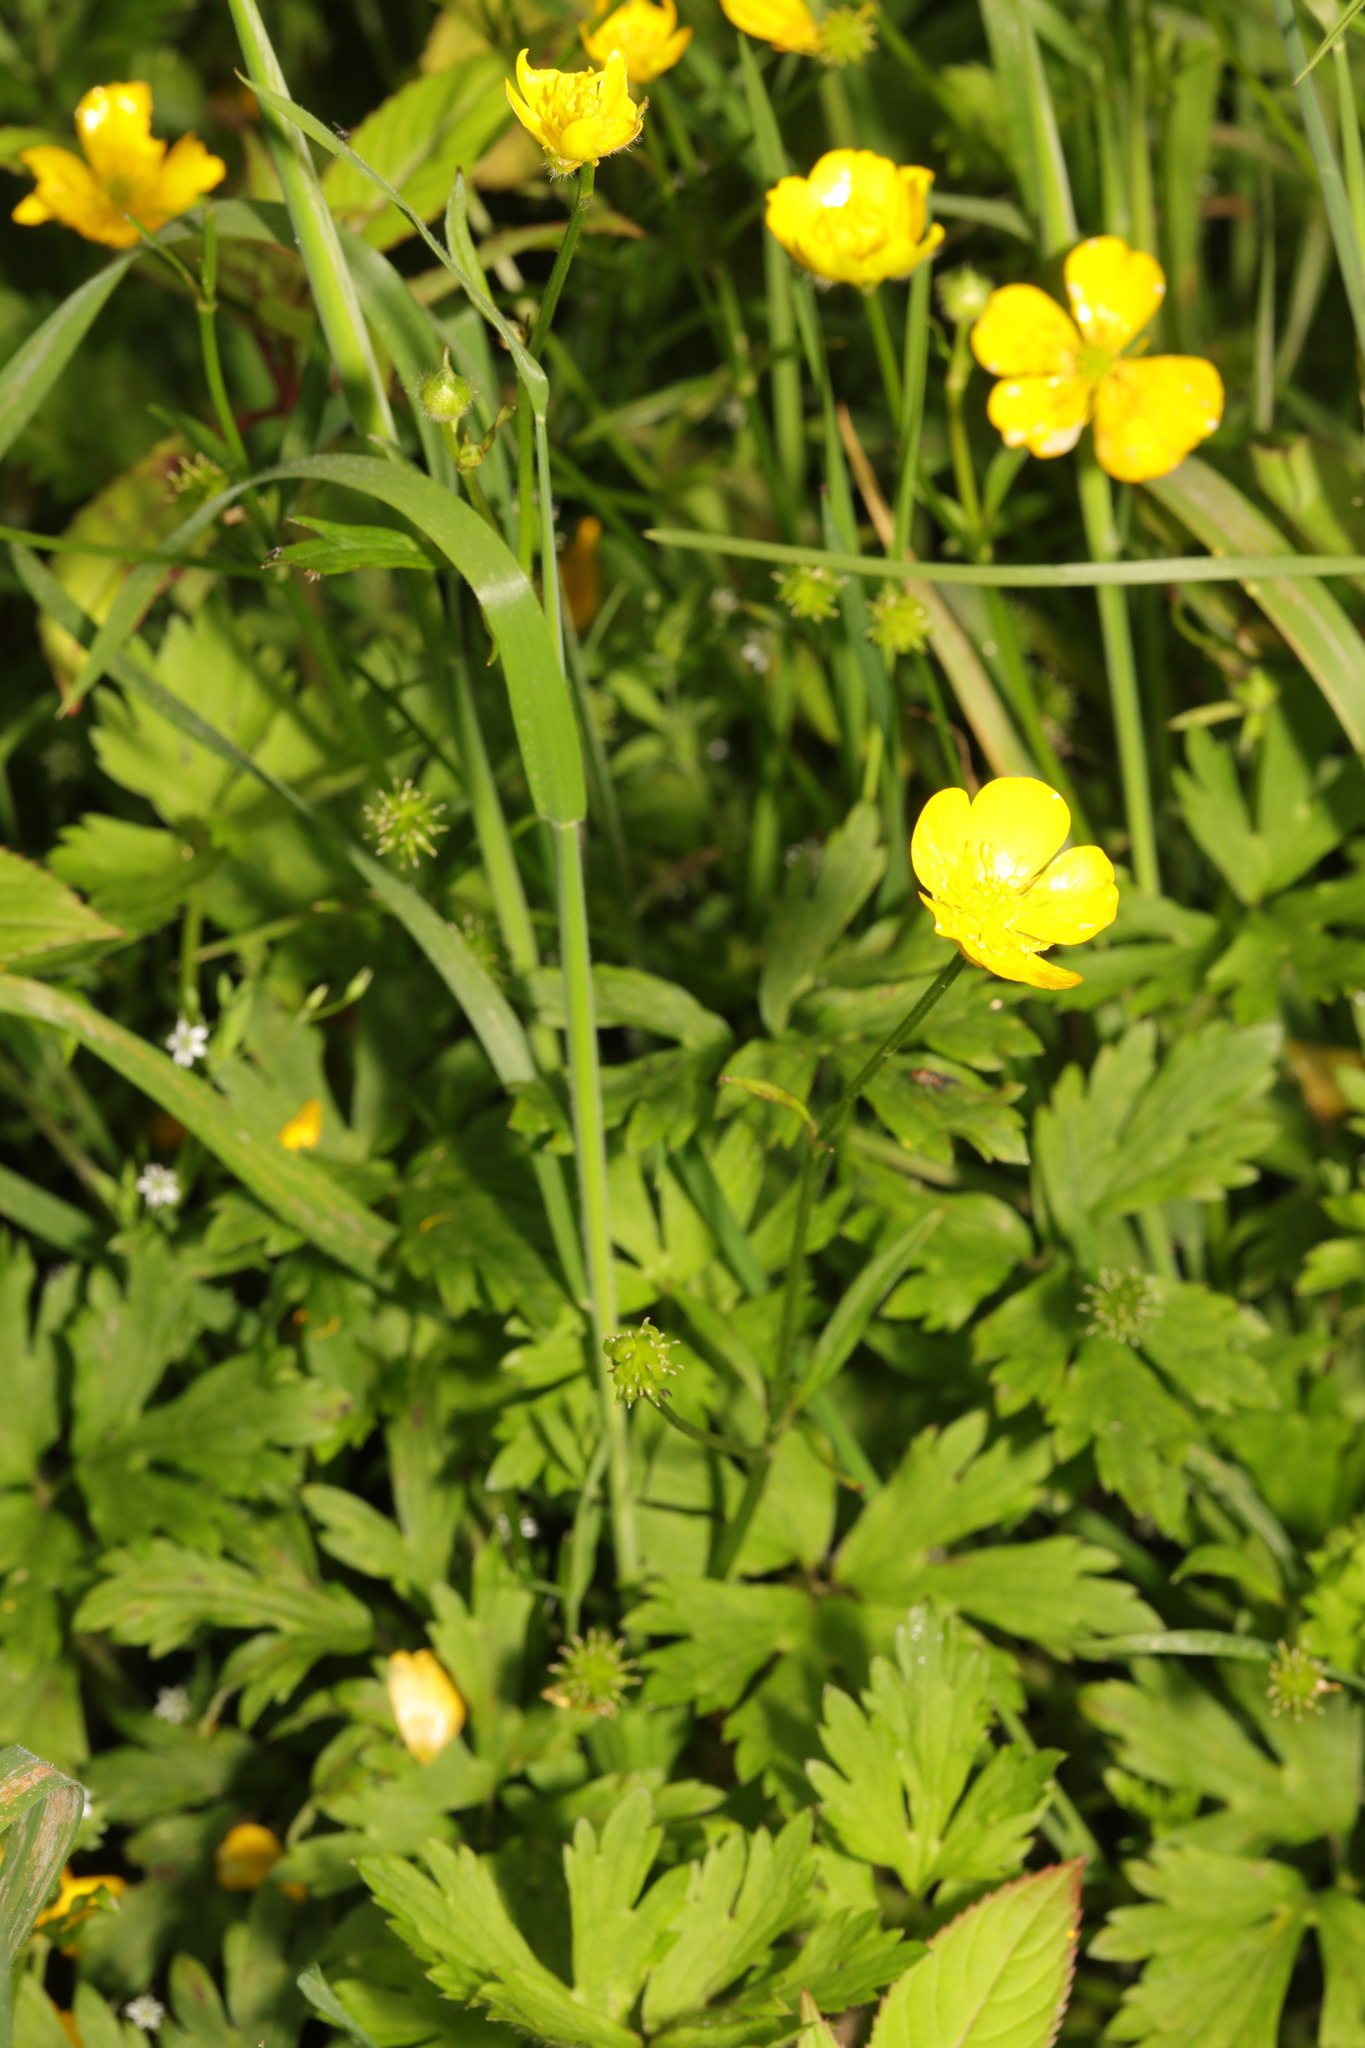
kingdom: Plantae
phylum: Tracheophyta
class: Magnoliopsida
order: Ranunculales
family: Ranunculaceae
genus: Ranunculus
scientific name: Ranunculus repens
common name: Creeping buttercup
